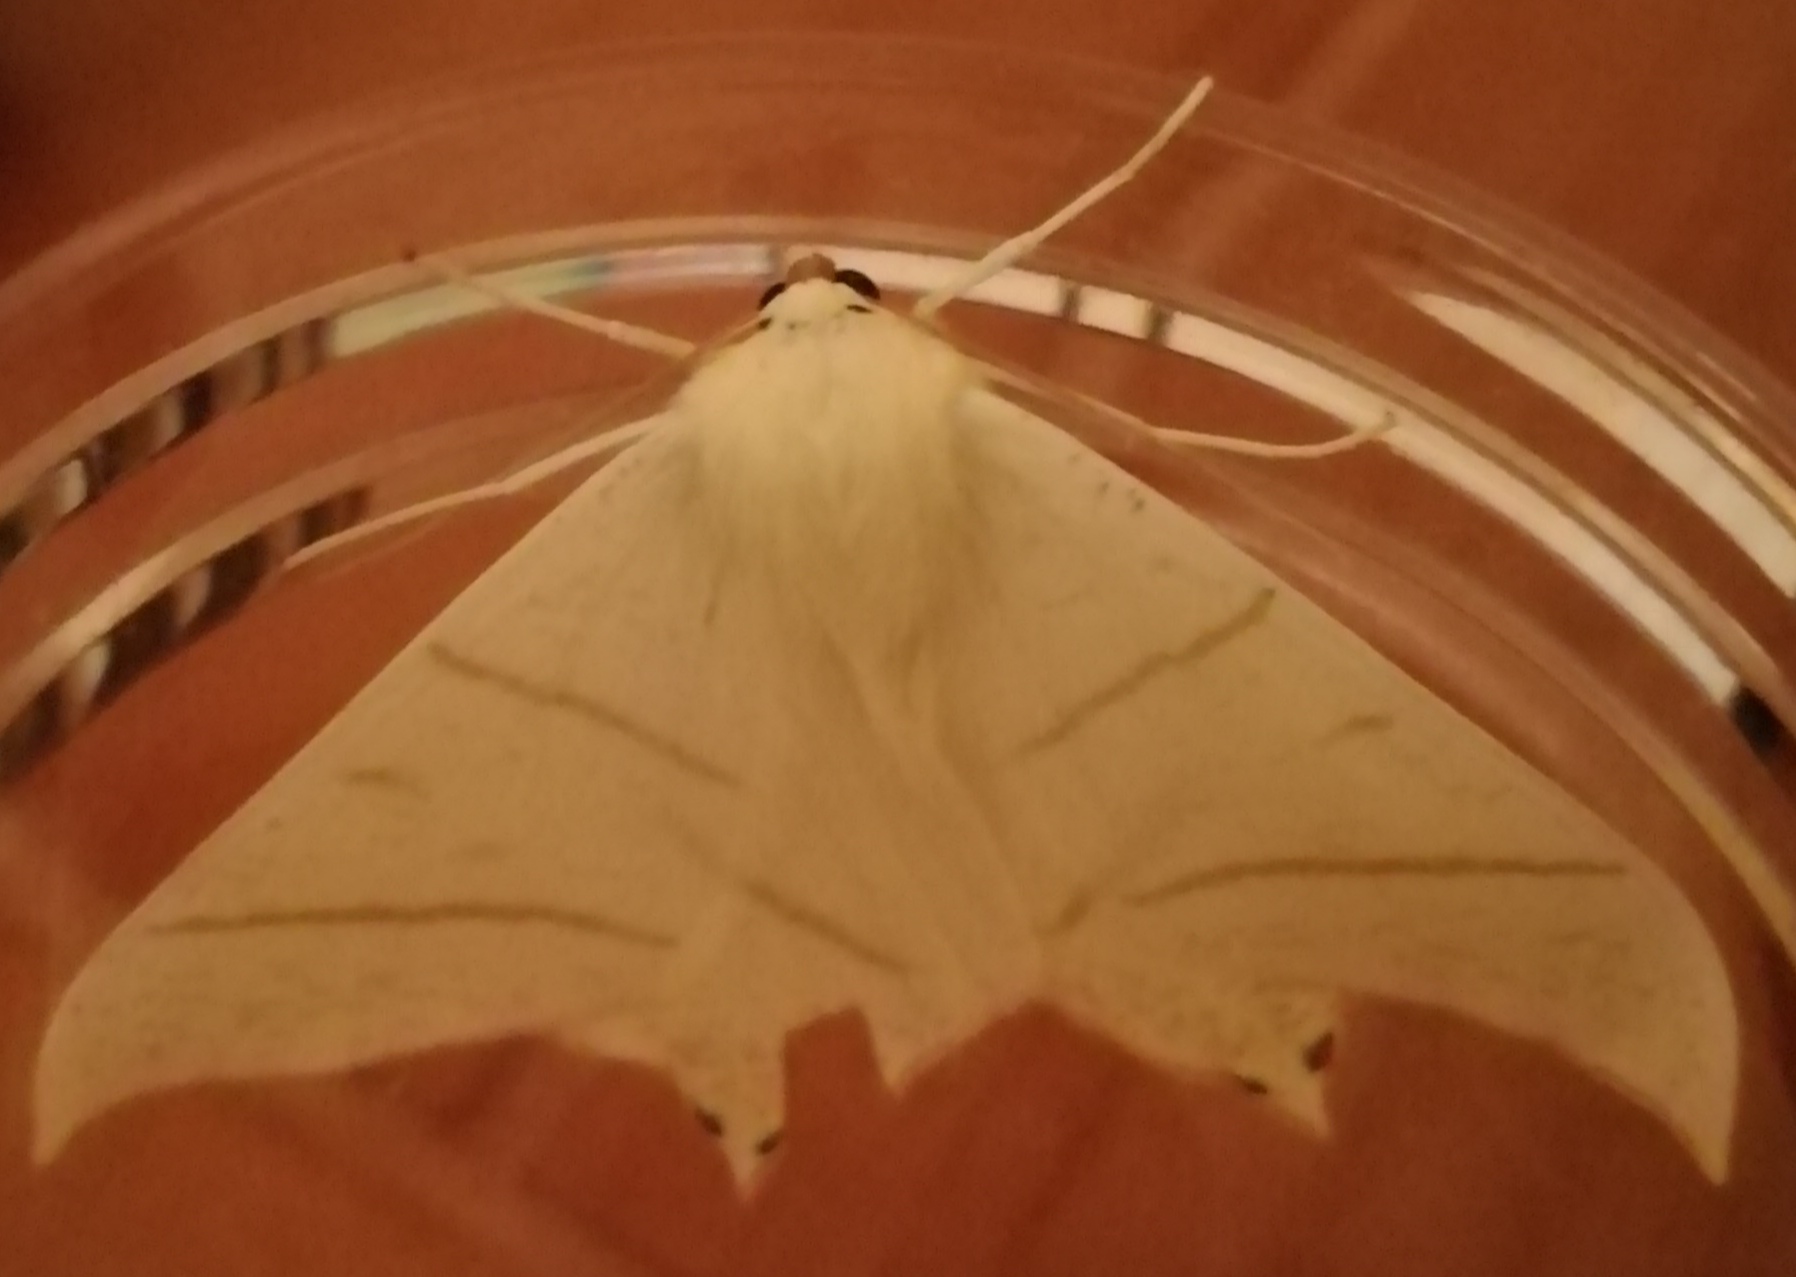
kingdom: Animalia
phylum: Arthropoda
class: Insecta
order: Lepidoptera
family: Geometridae
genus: Ourapteryx
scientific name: Ourapteryx sambucaria
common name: Swallow-tailed moth
